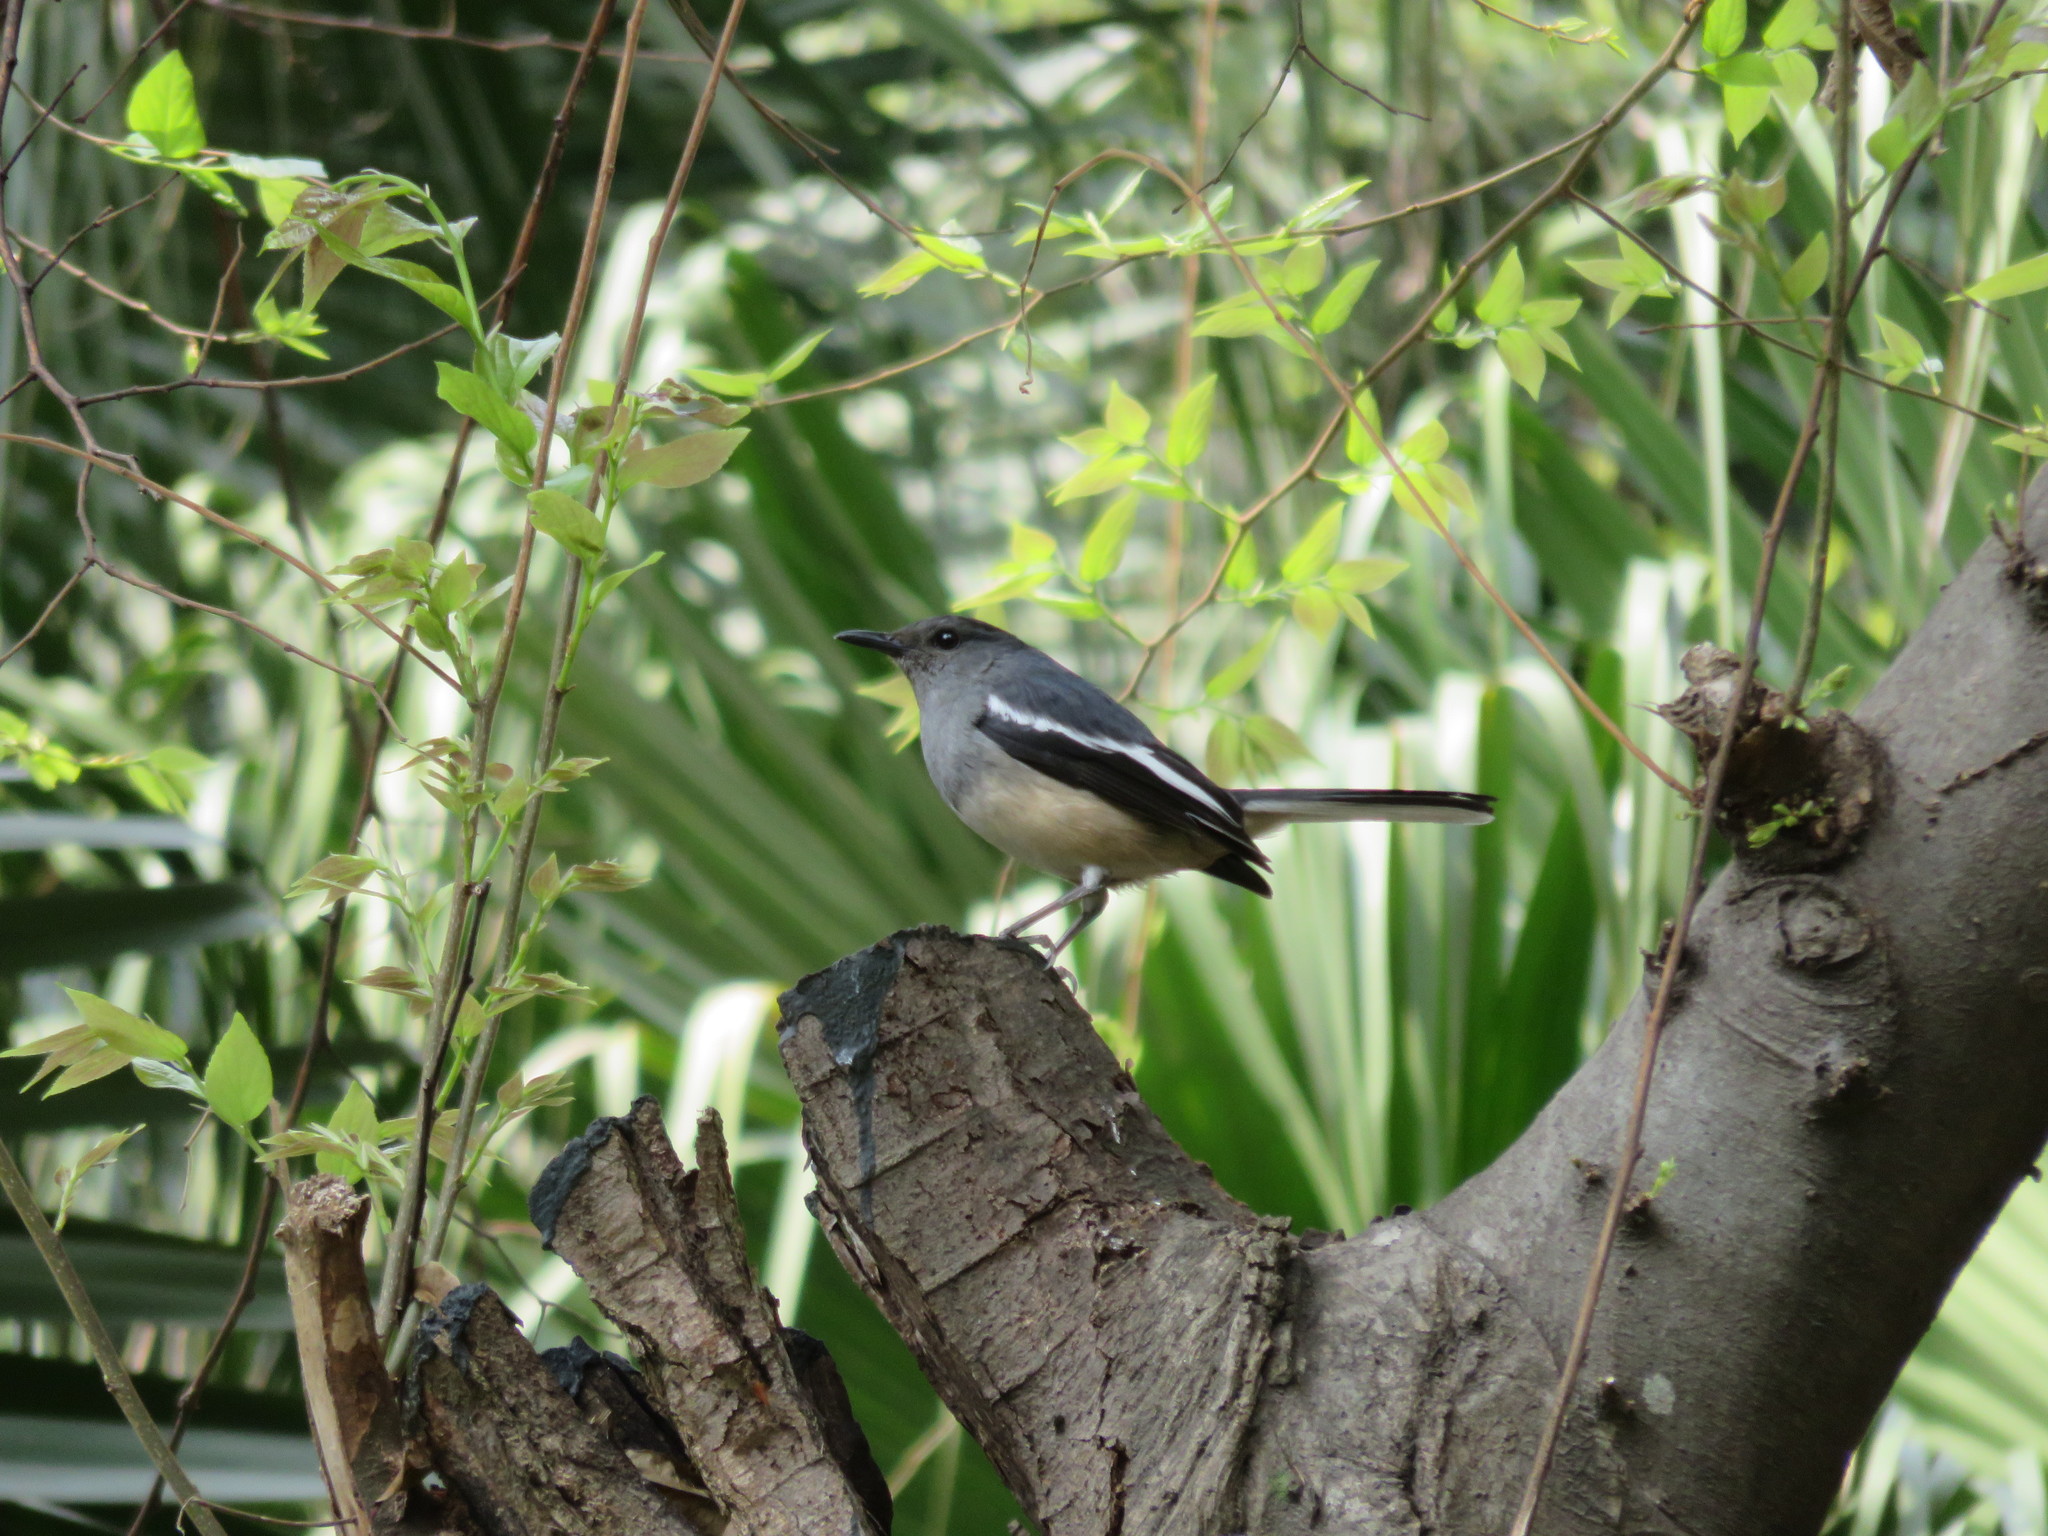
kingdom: Animalia
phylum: Chordata
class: Aves
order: Passeriformes
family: Muscicapidae
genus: Copsychus
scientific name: Copsychus saularis
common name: Oriental magpie-robin
